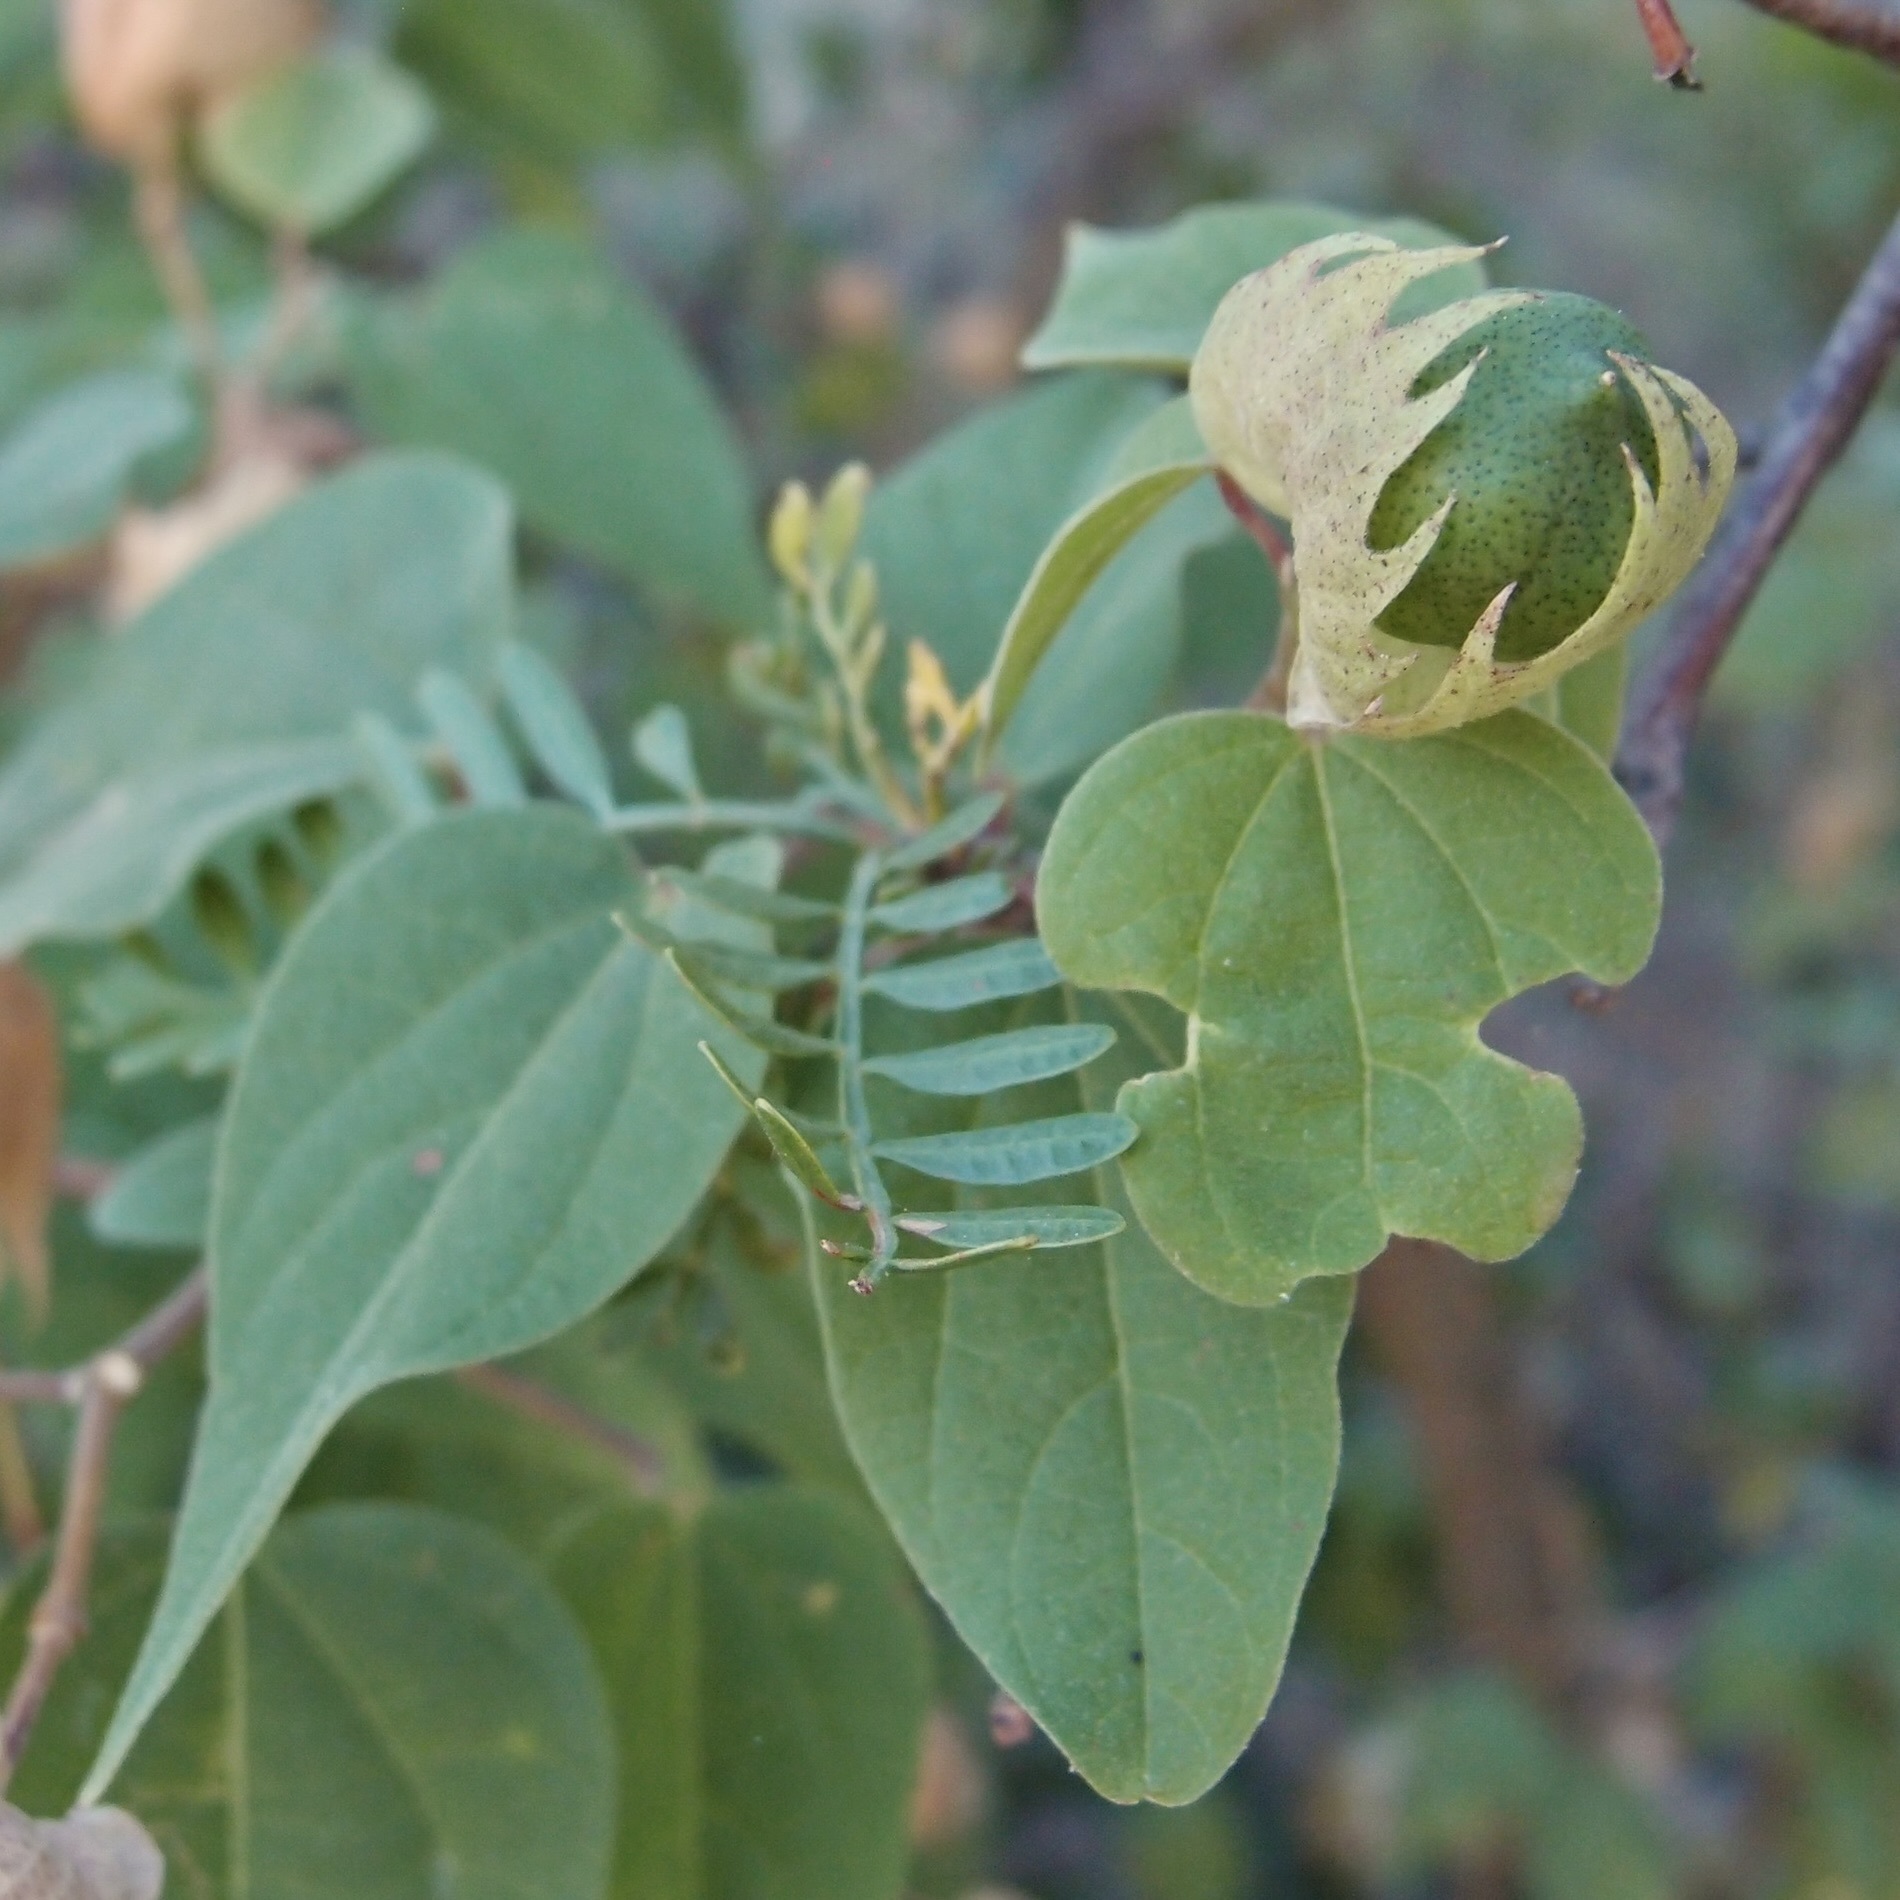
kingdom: Plantae
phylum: Tracheophyta
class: Magnoliopsida
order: Malvales
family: Malvaceae
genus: Gossypium
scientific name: Gossypium klotzschianum
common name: Galapagos cotton
